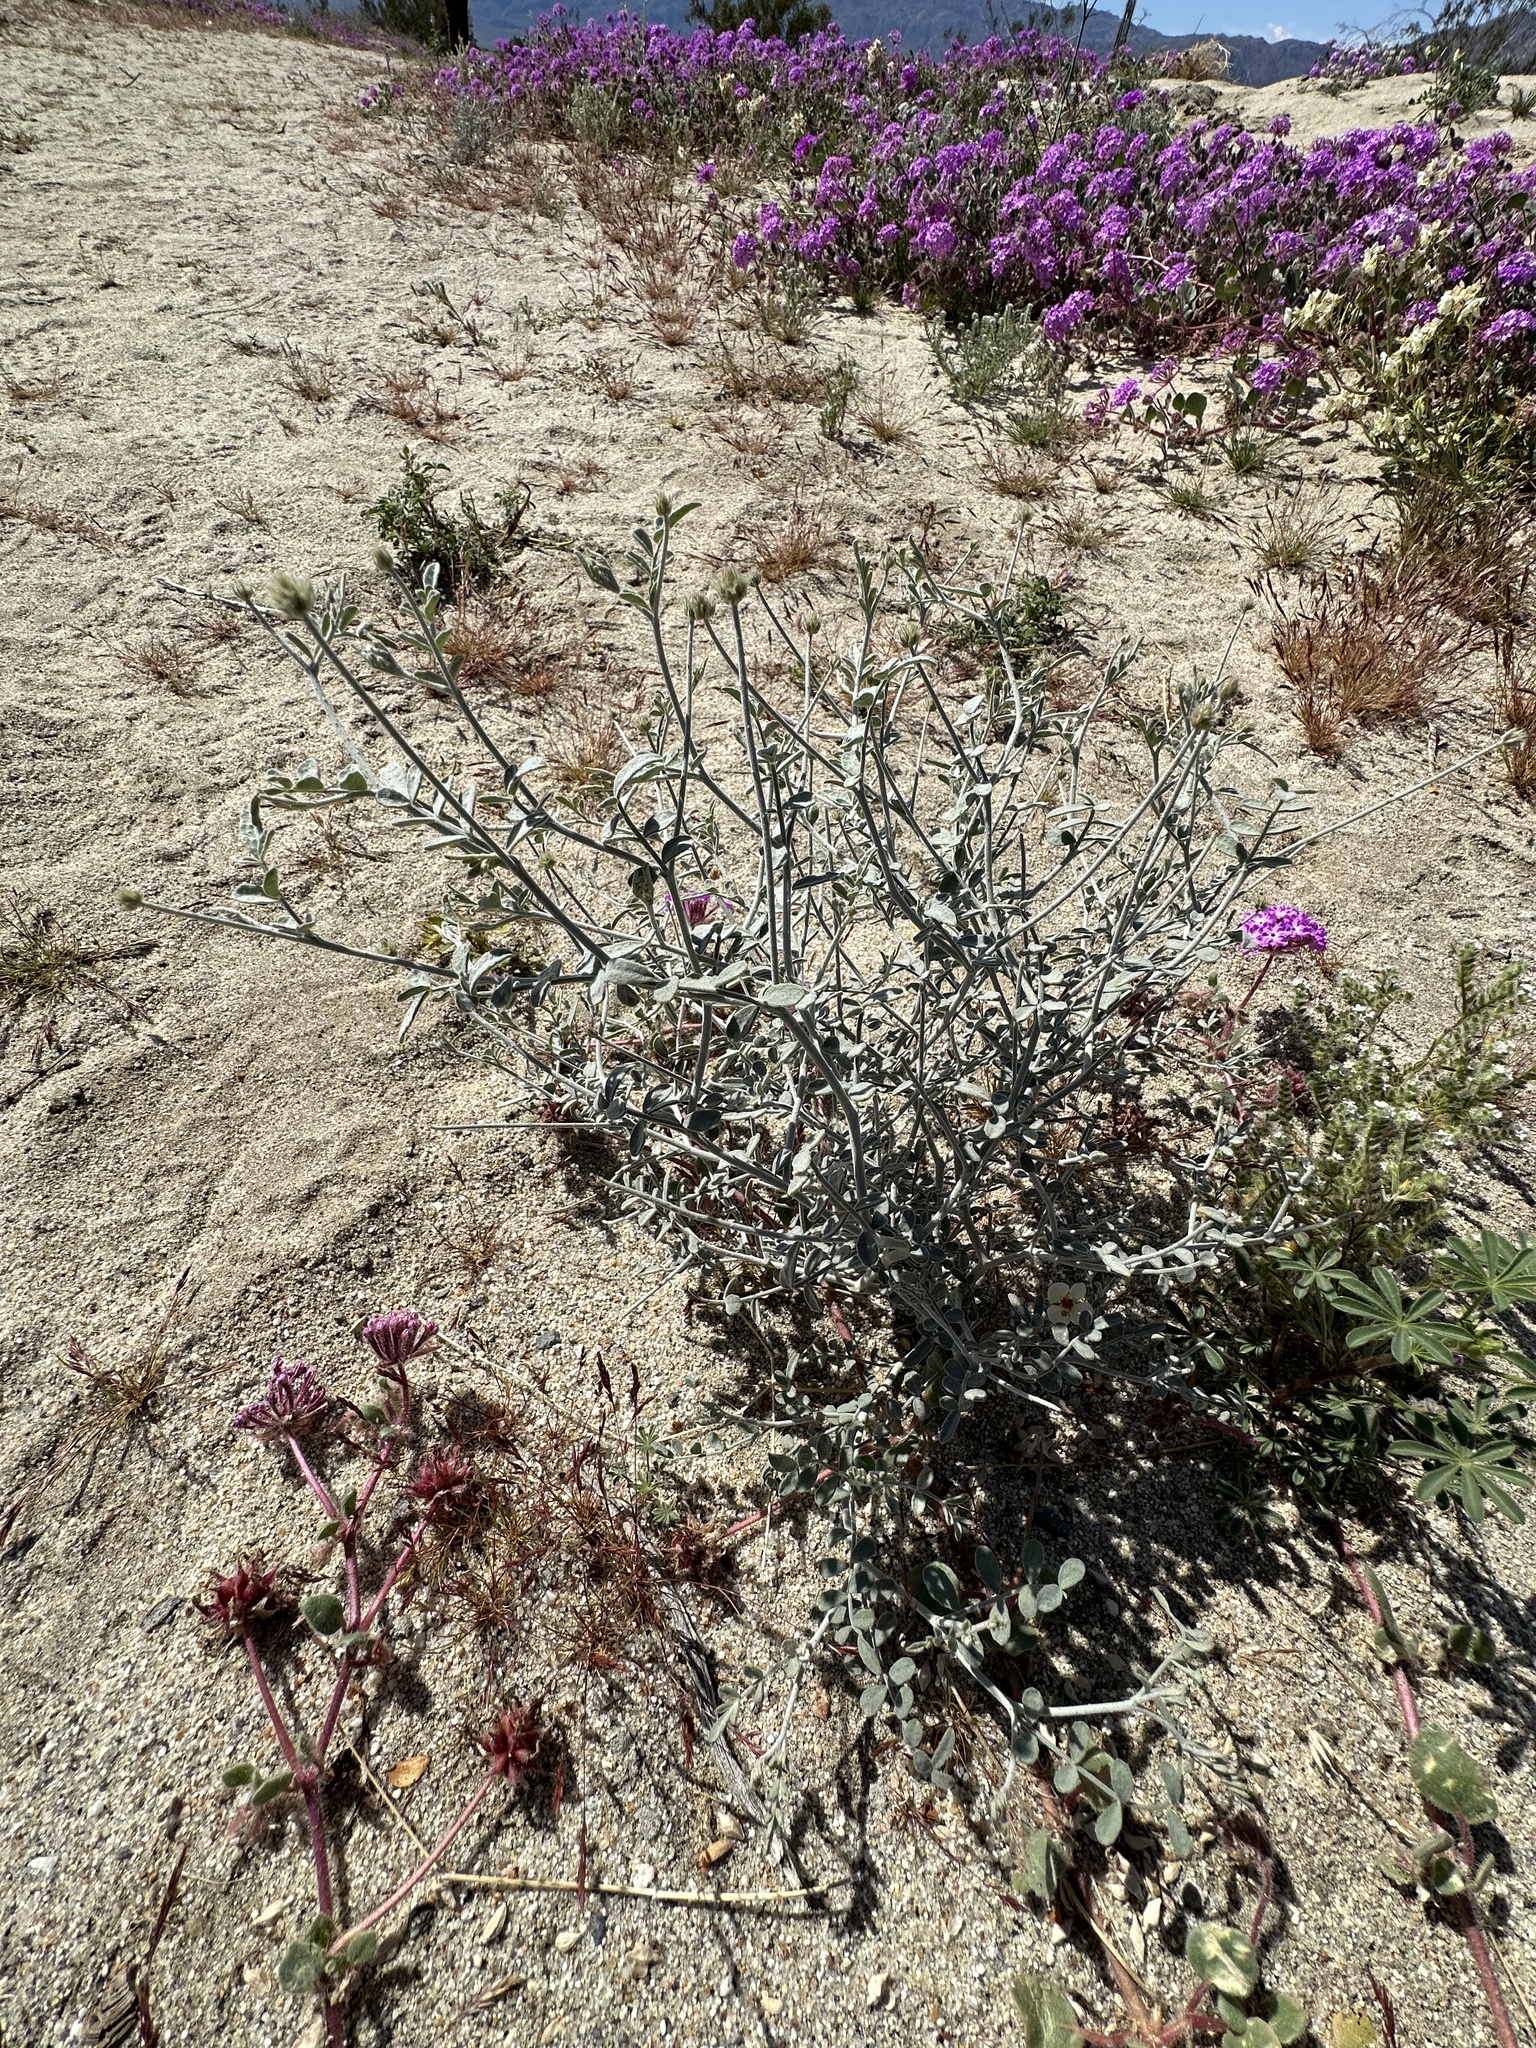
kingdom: Plantae
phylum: Tracheophyta
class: Magnoliopsida
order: Fabales
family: Fabaceae
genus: Psorothamnus
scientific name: Psorothamnus emoryi
